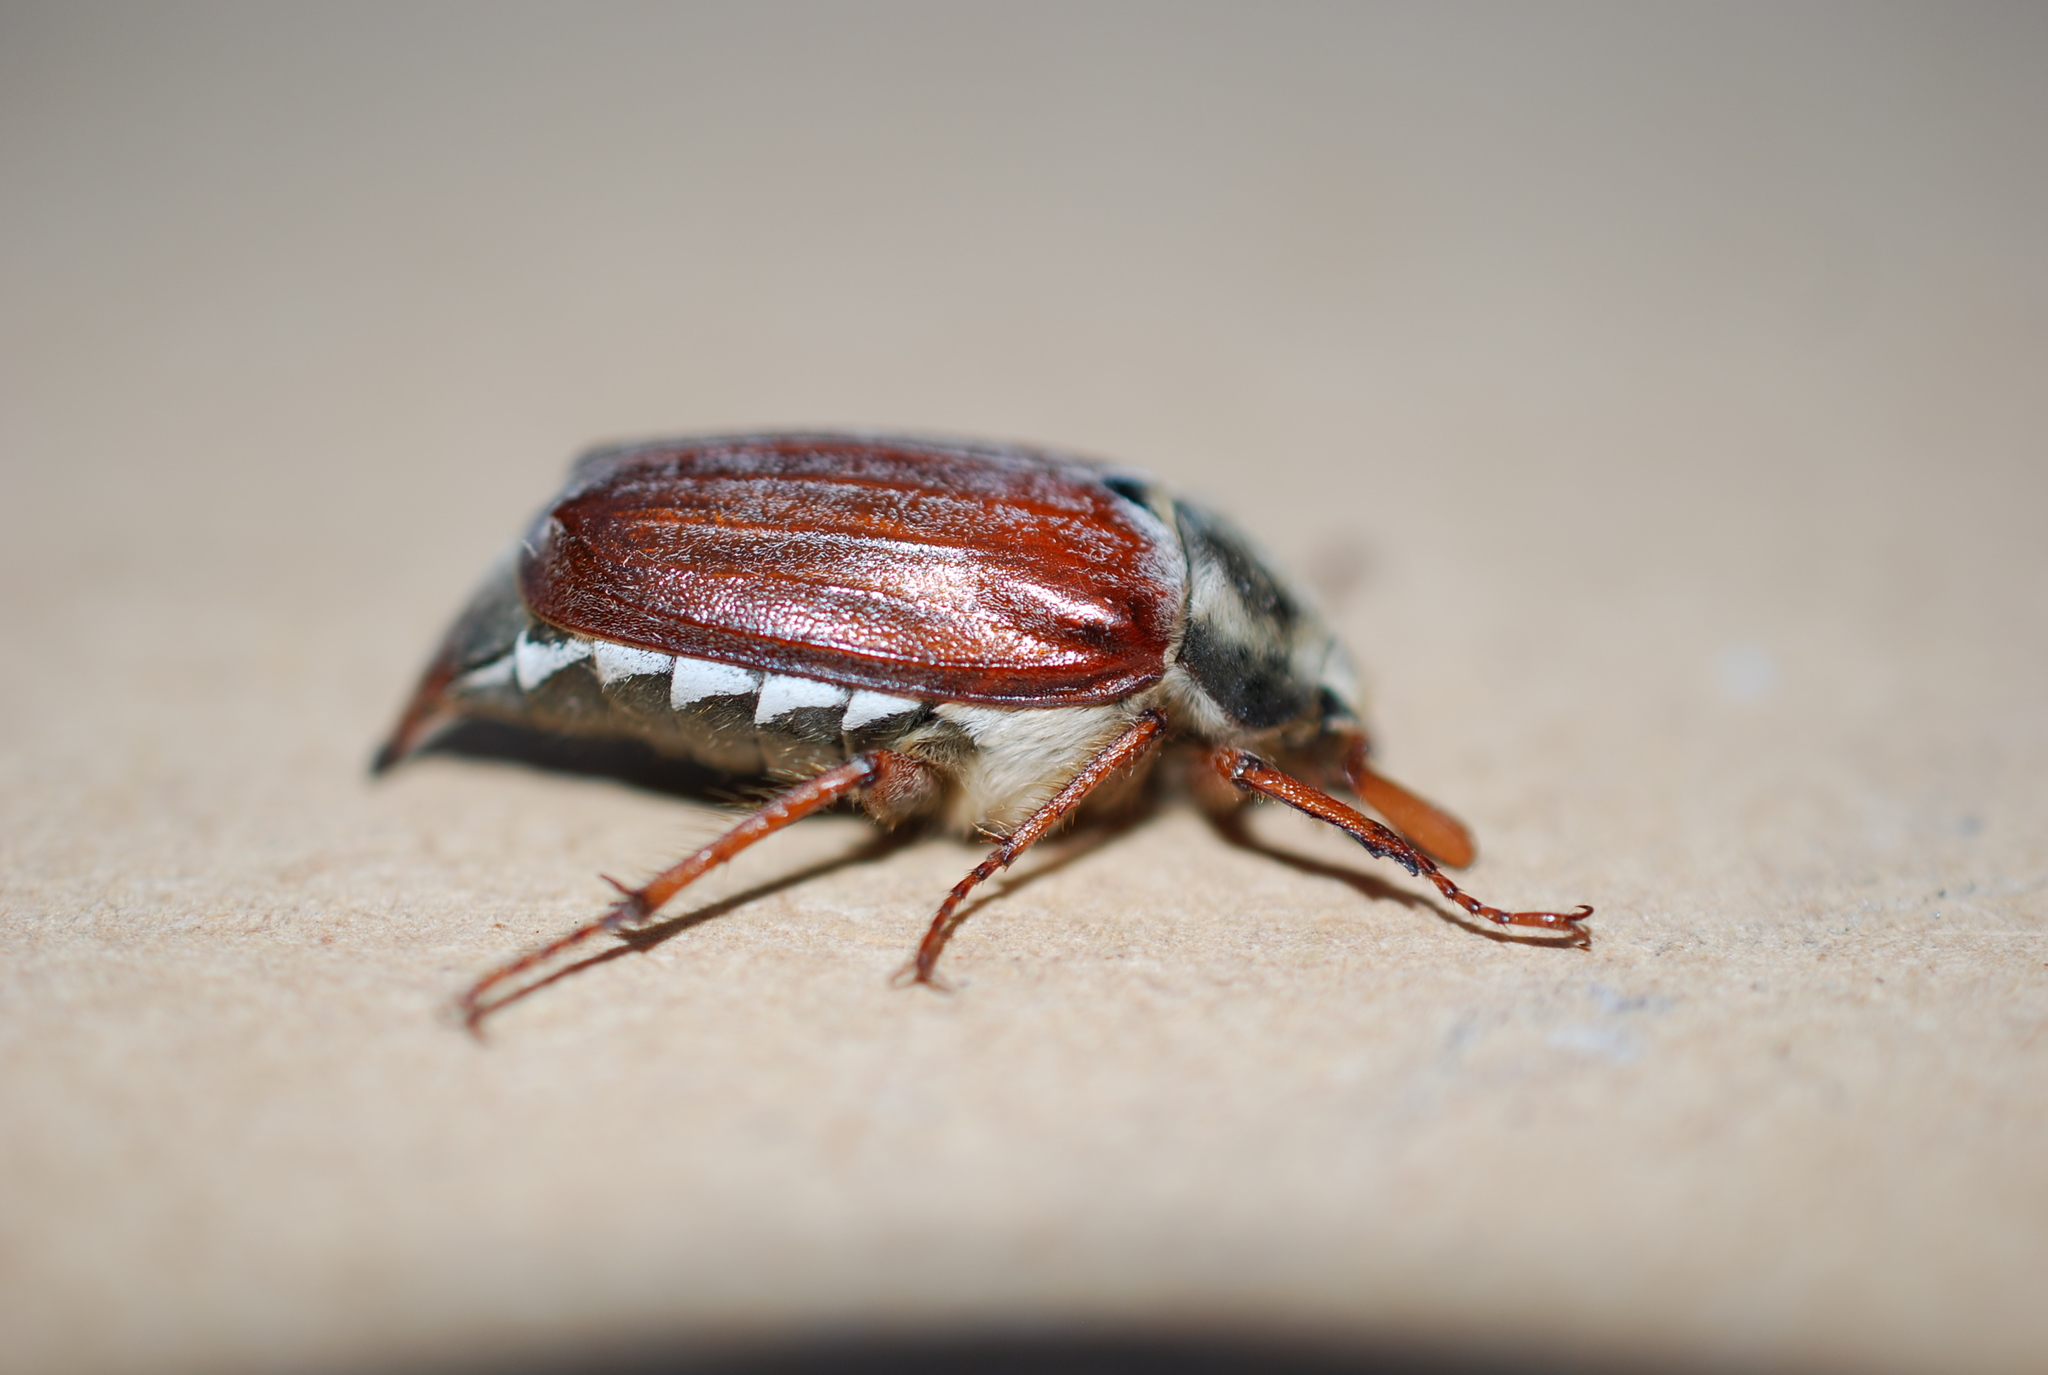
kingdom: Animalia
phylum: Arthropoda
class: Insecta
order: Coleoptera
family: Scarabaeidae
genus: Melolontha
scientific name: Melolontha melolontha
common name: Cockchafer maybeetle
